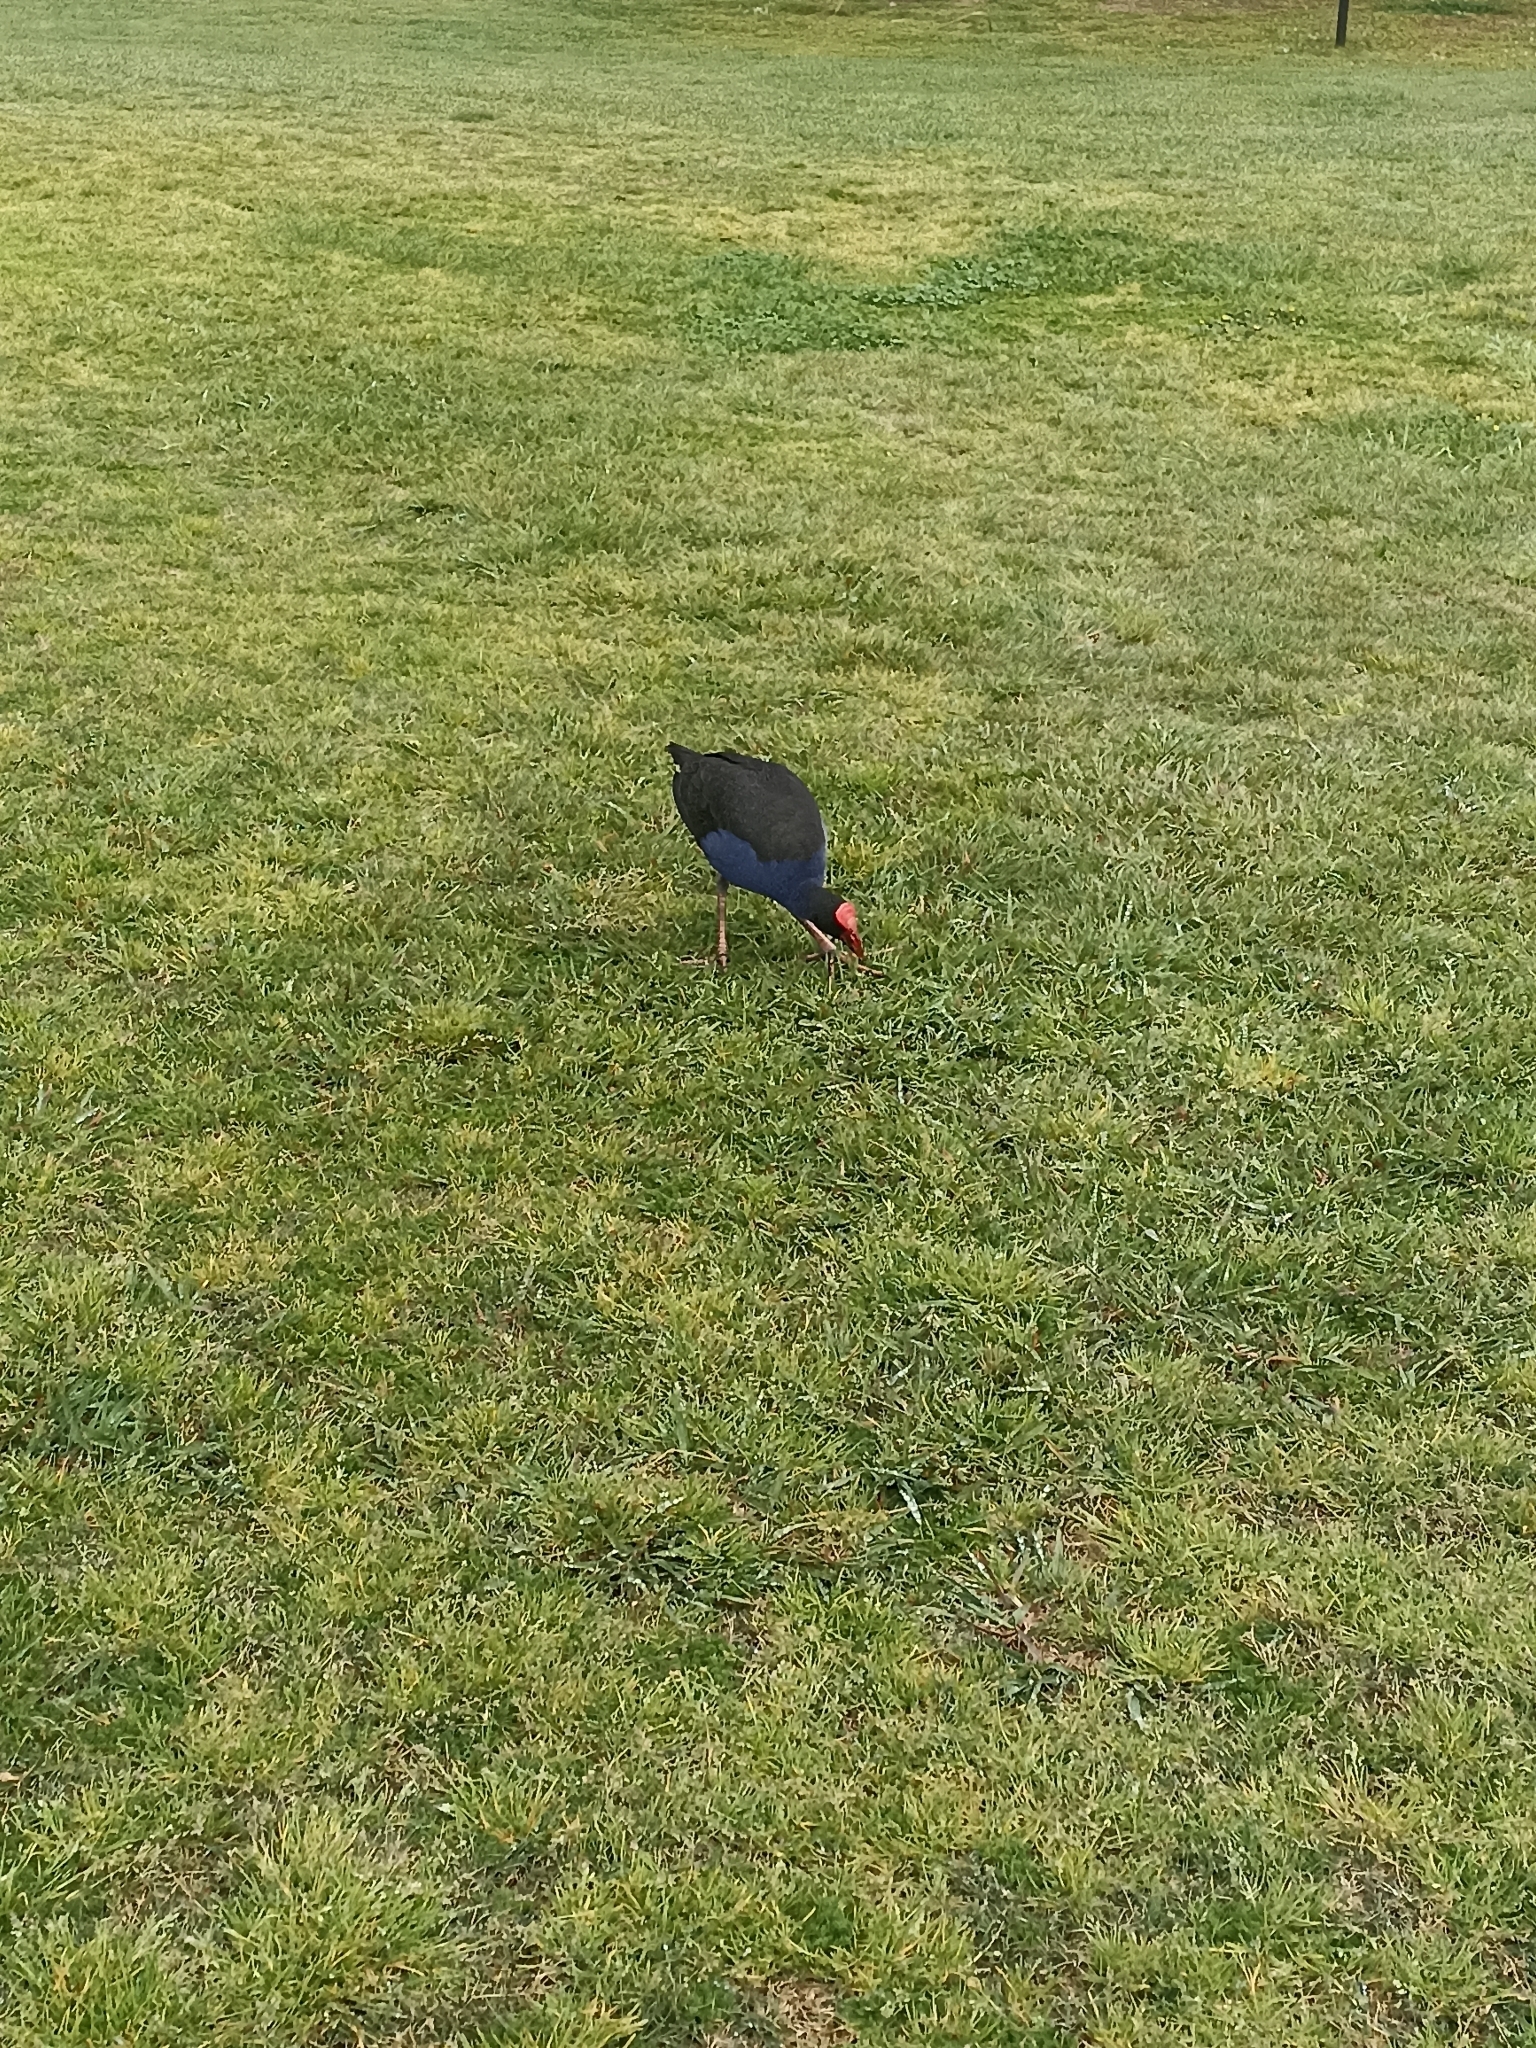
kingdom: Animalia
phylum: Chordata
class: Aves
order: Gruiformes
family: Rallidae
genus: Porphyrio
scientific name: Porphyrio melanotus
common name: Australasian swamphen
